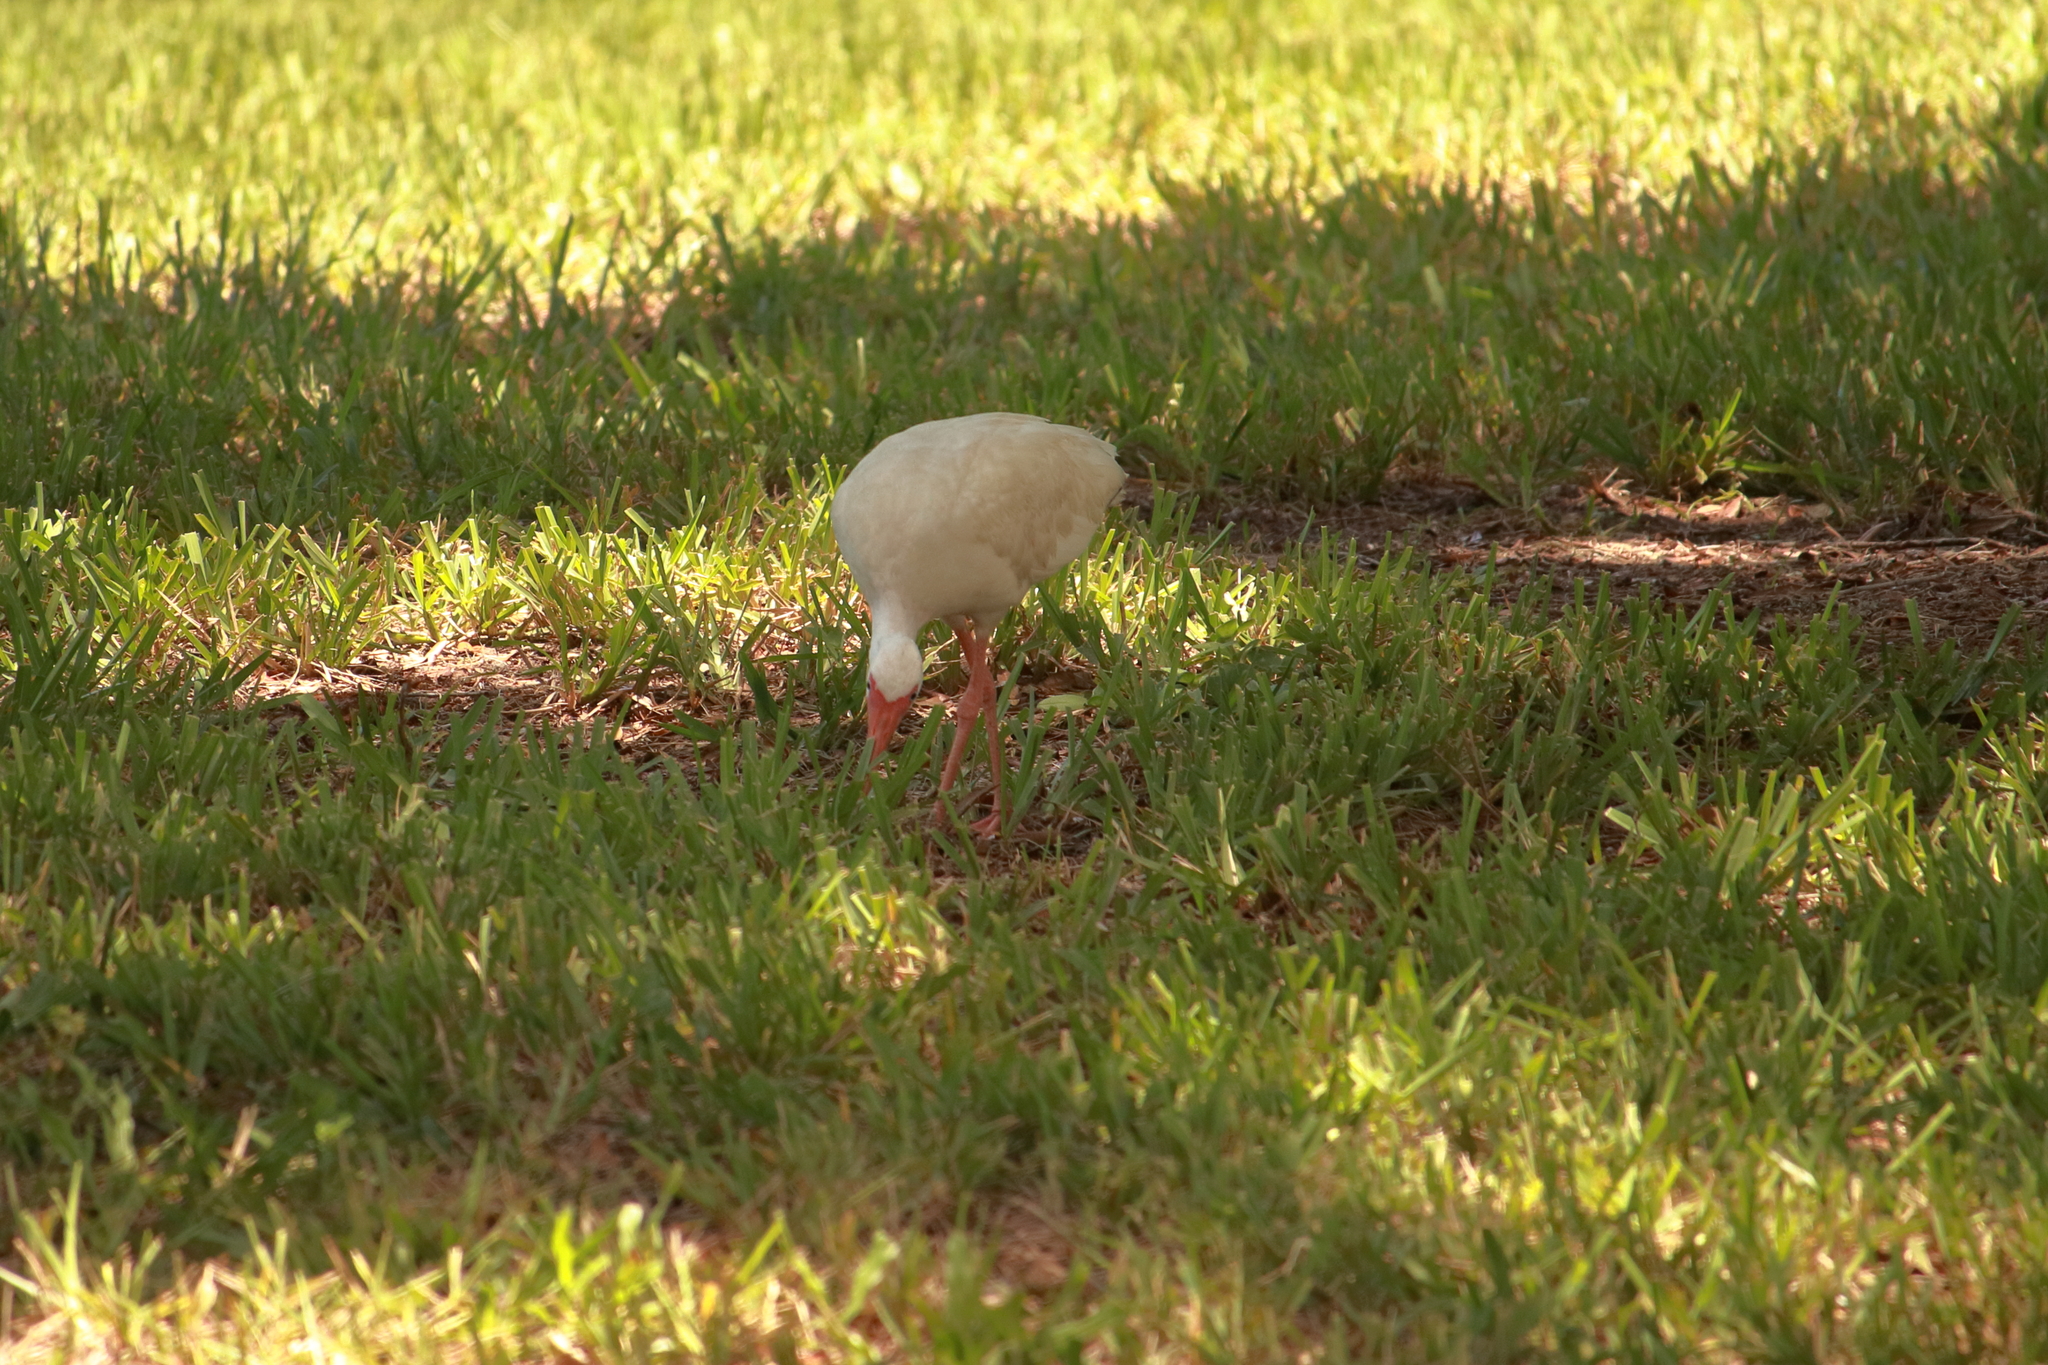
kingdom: Animalia
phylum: Chordata
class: Aves
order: Pelecaniformes
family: Threskiornithidae
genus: Eudocimus
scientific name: Eudocimus albus
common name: White ibis
